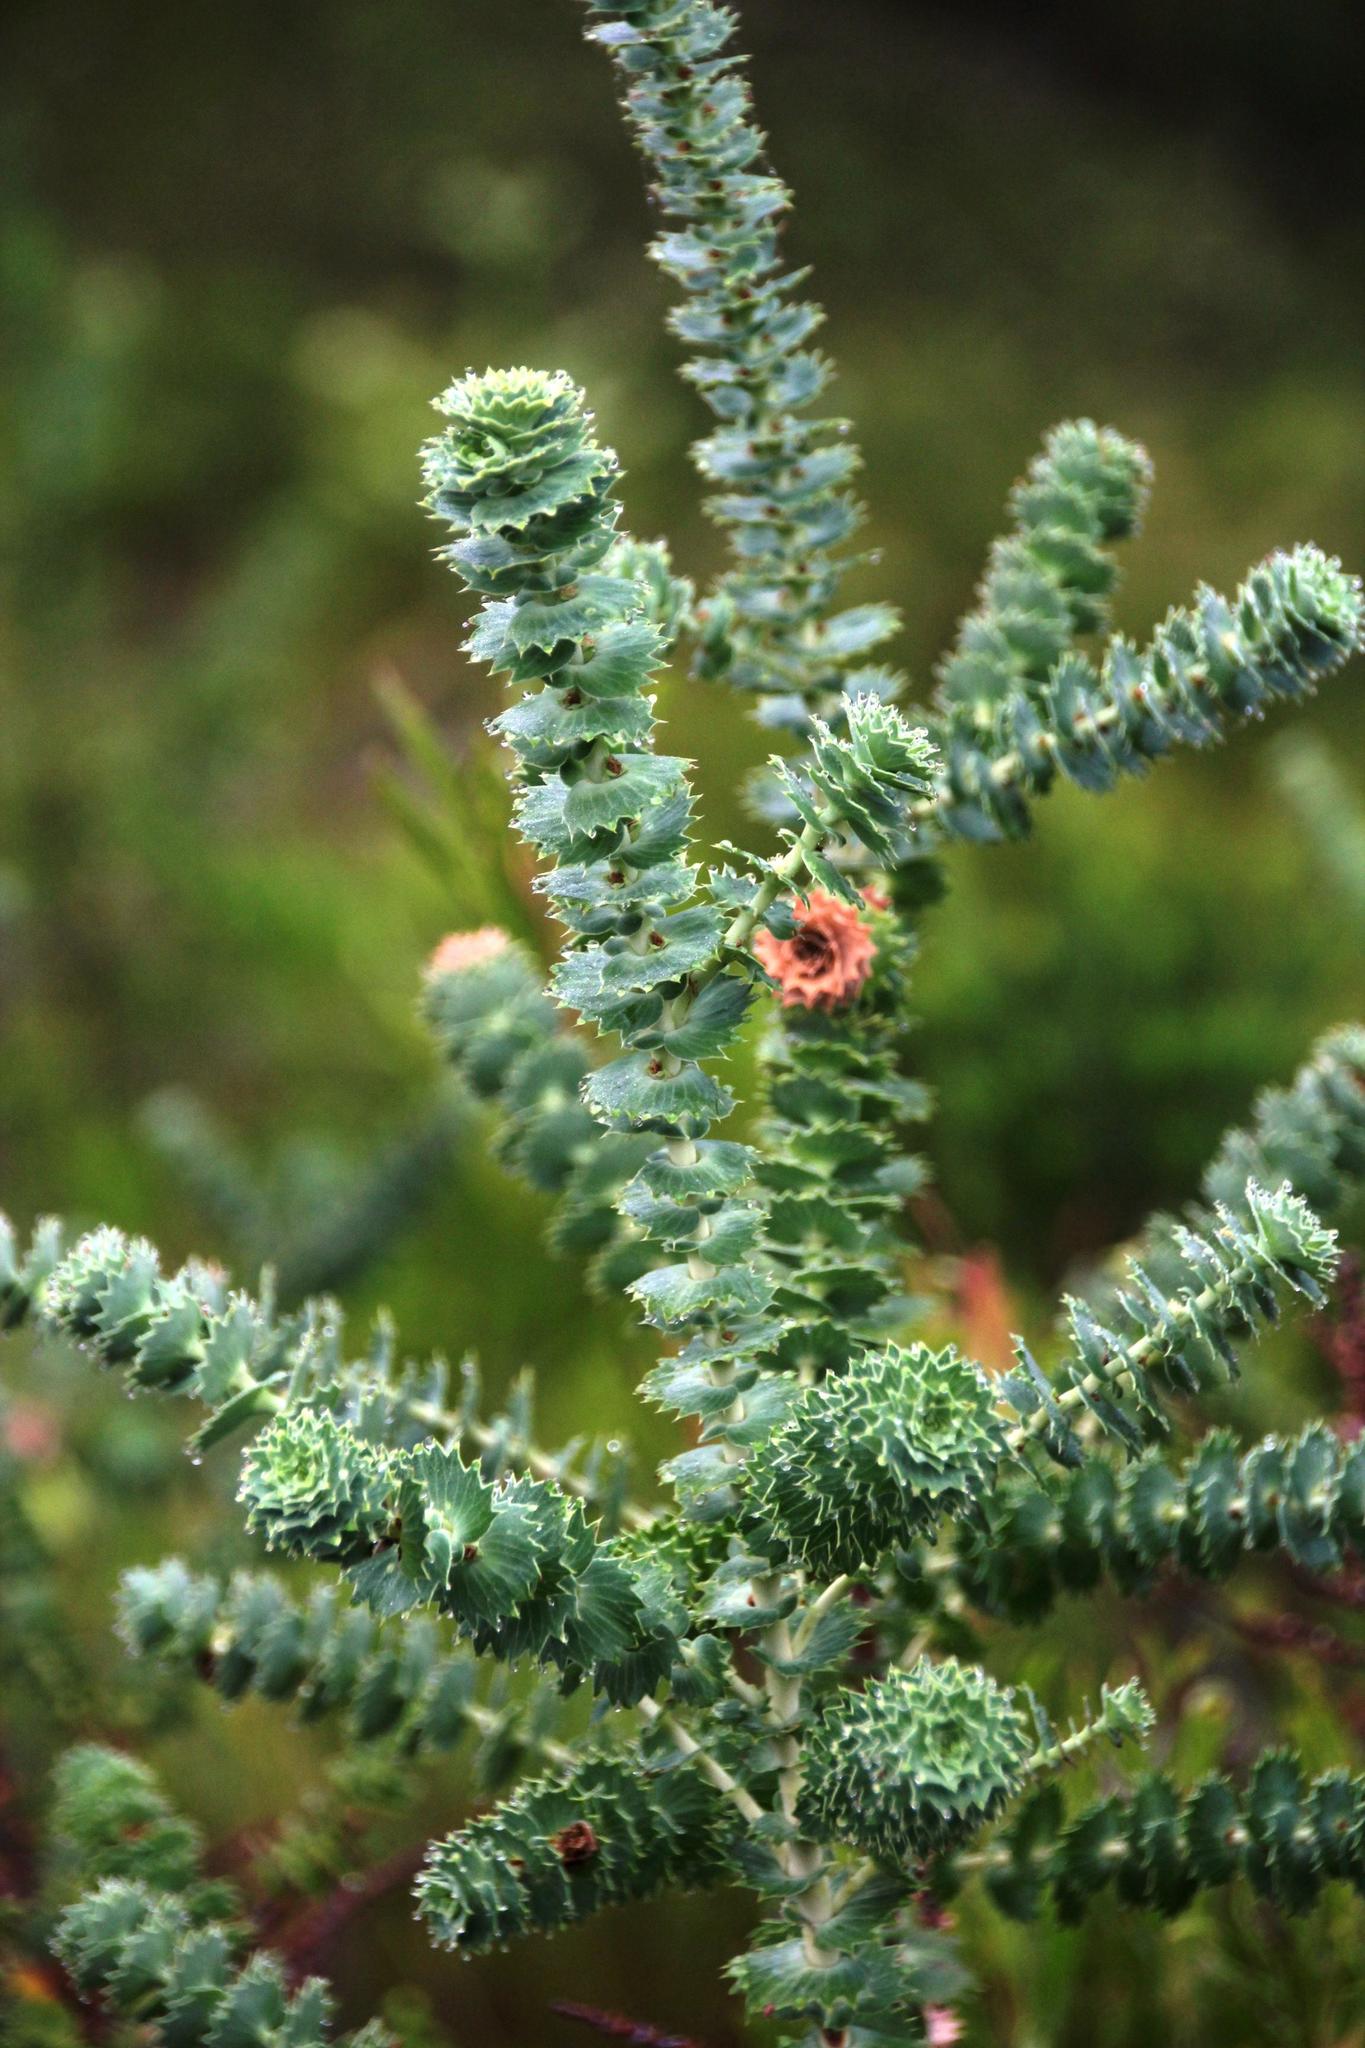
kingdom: Plantae
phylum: Tracheophyta
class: Magnoliopsida
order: Rosales
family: Rosaceae
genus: Cliffortia
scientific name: Cliffortia reniformis
